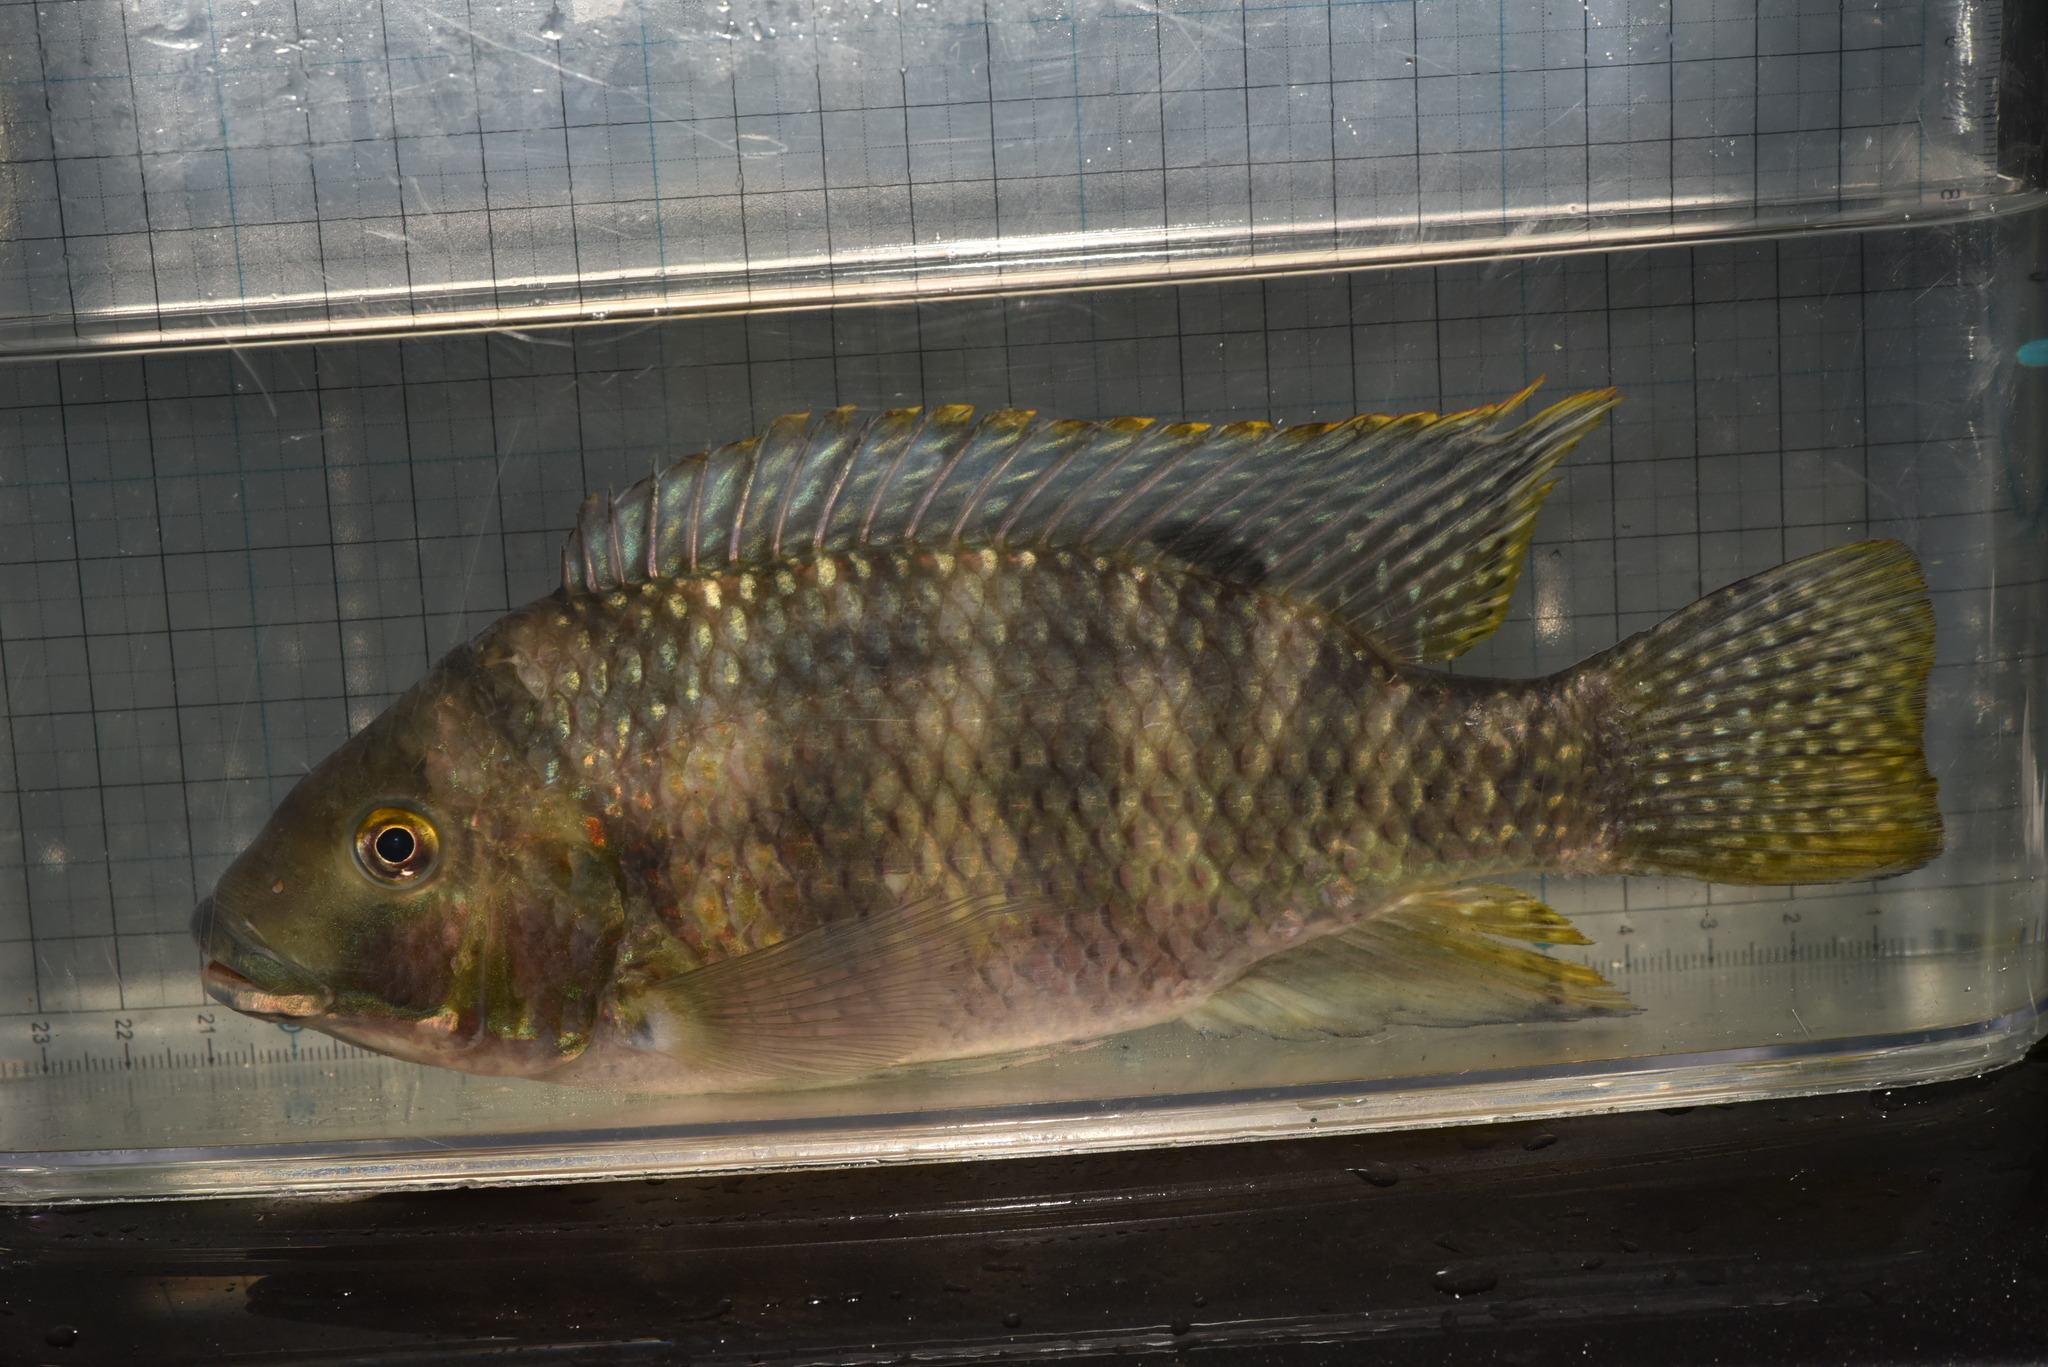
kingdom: Animalia
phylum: Chordata
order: Perciformes
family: Cichlidae
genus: Coptodon
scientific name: Coptodon zillii
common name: Redbelly tilapia
